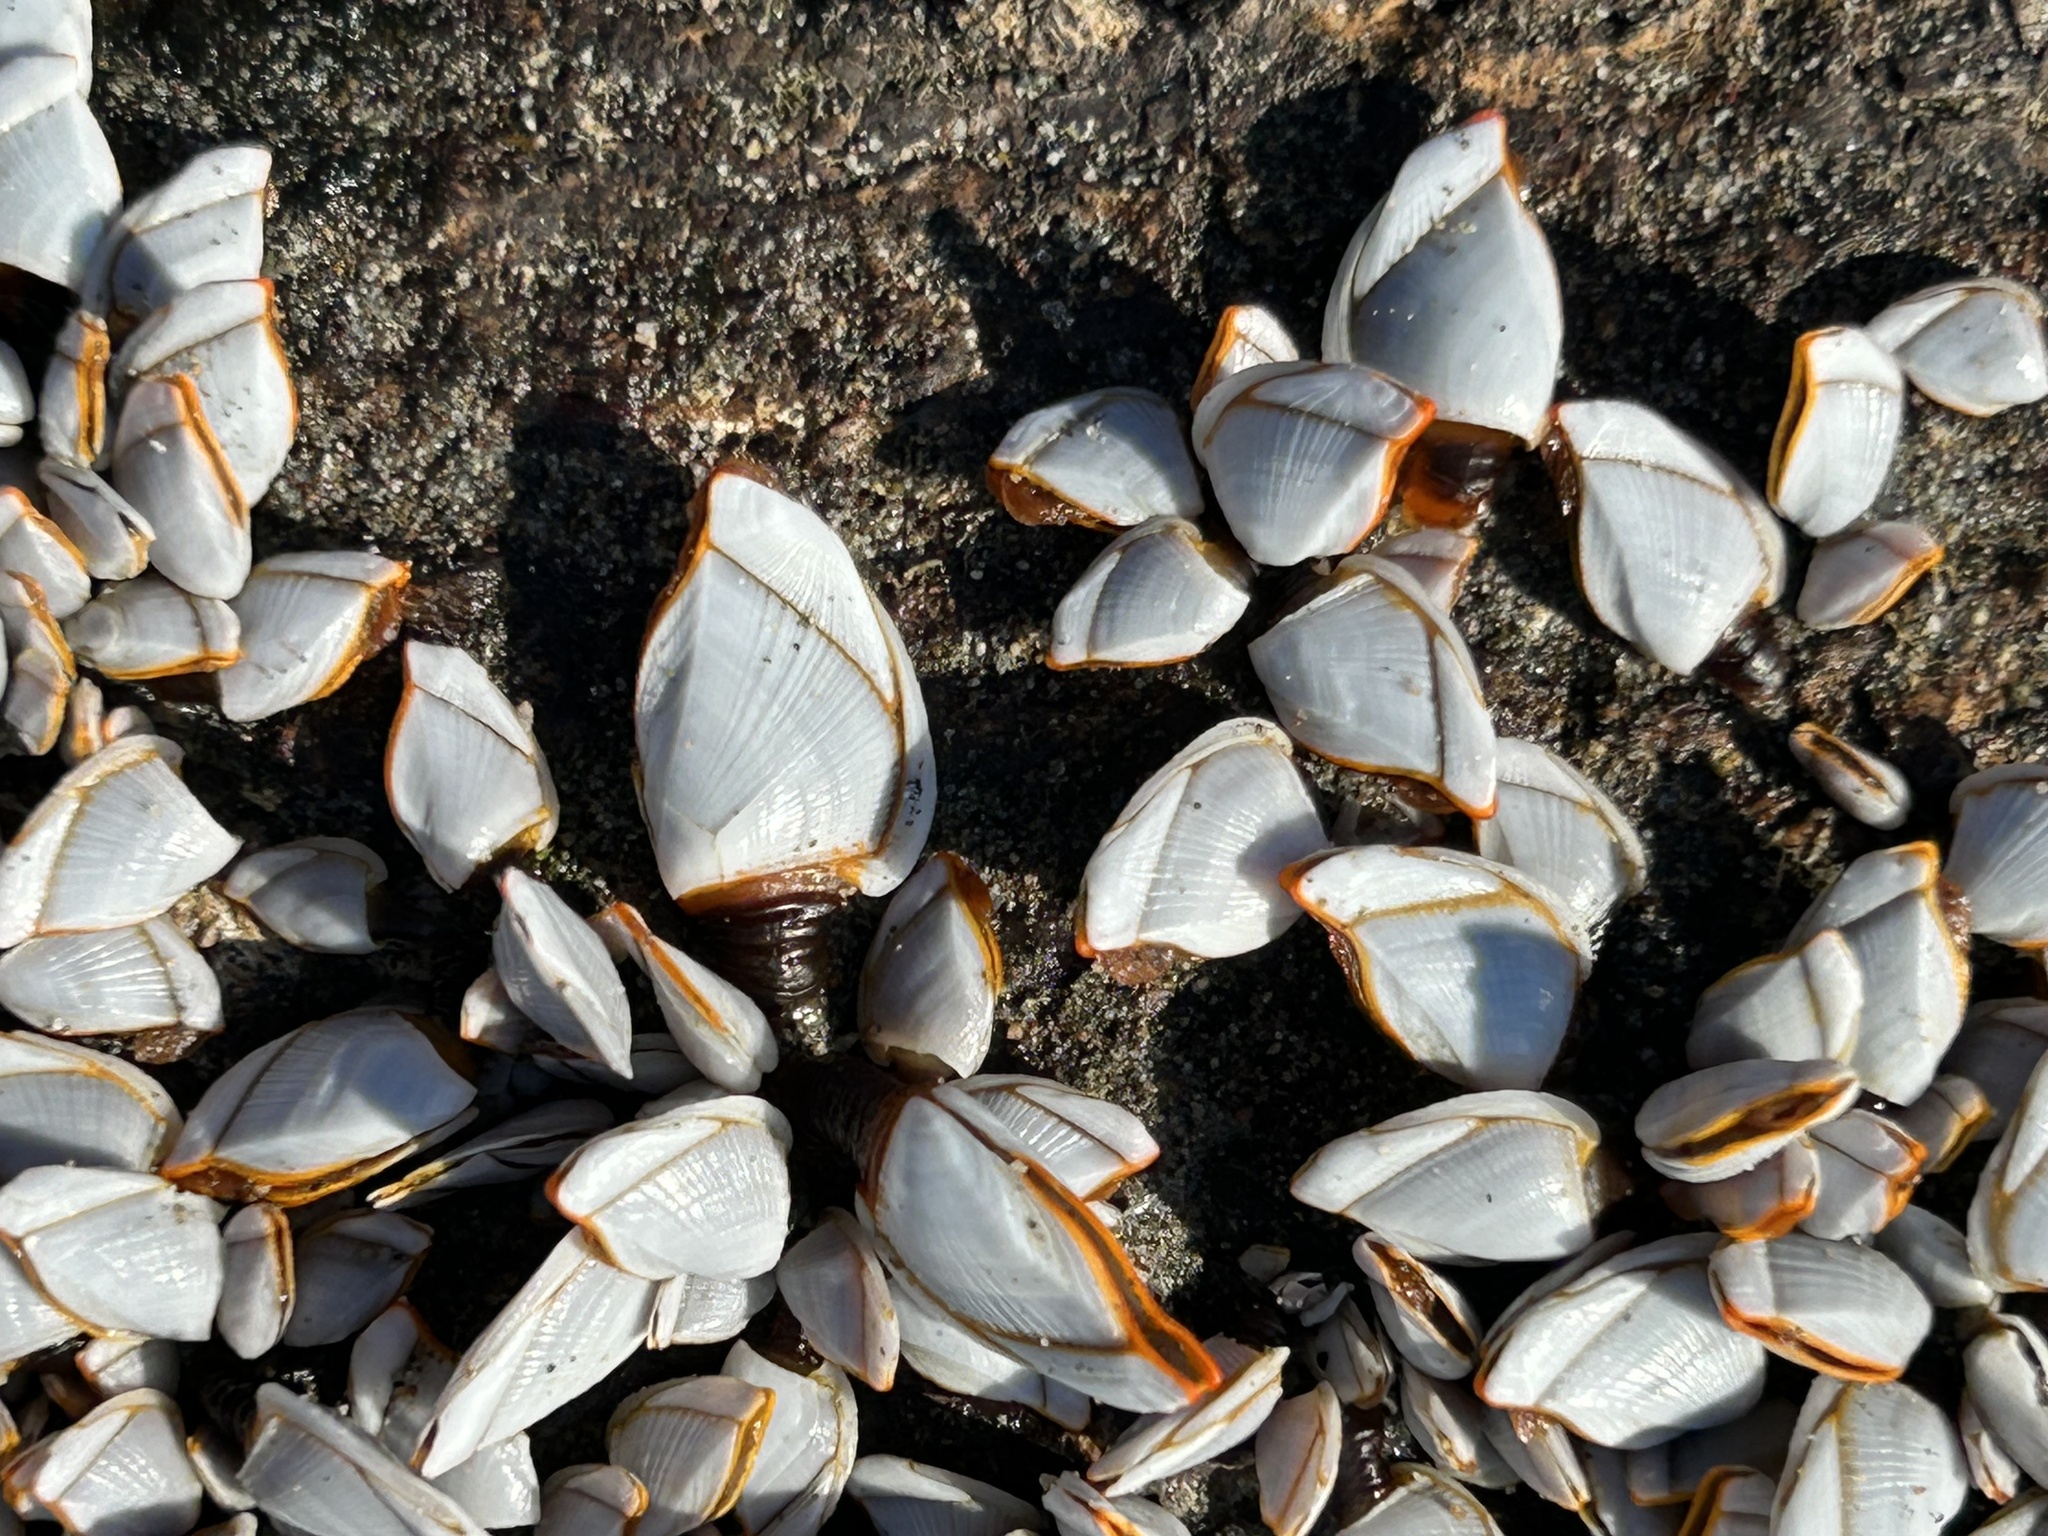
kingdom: Animalia
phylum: Arthropoda
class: Maxillopoda
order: Pedunculata
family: Lepadidae
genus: Lepas
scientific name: Lepas anserifera
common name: Goose barnacle
